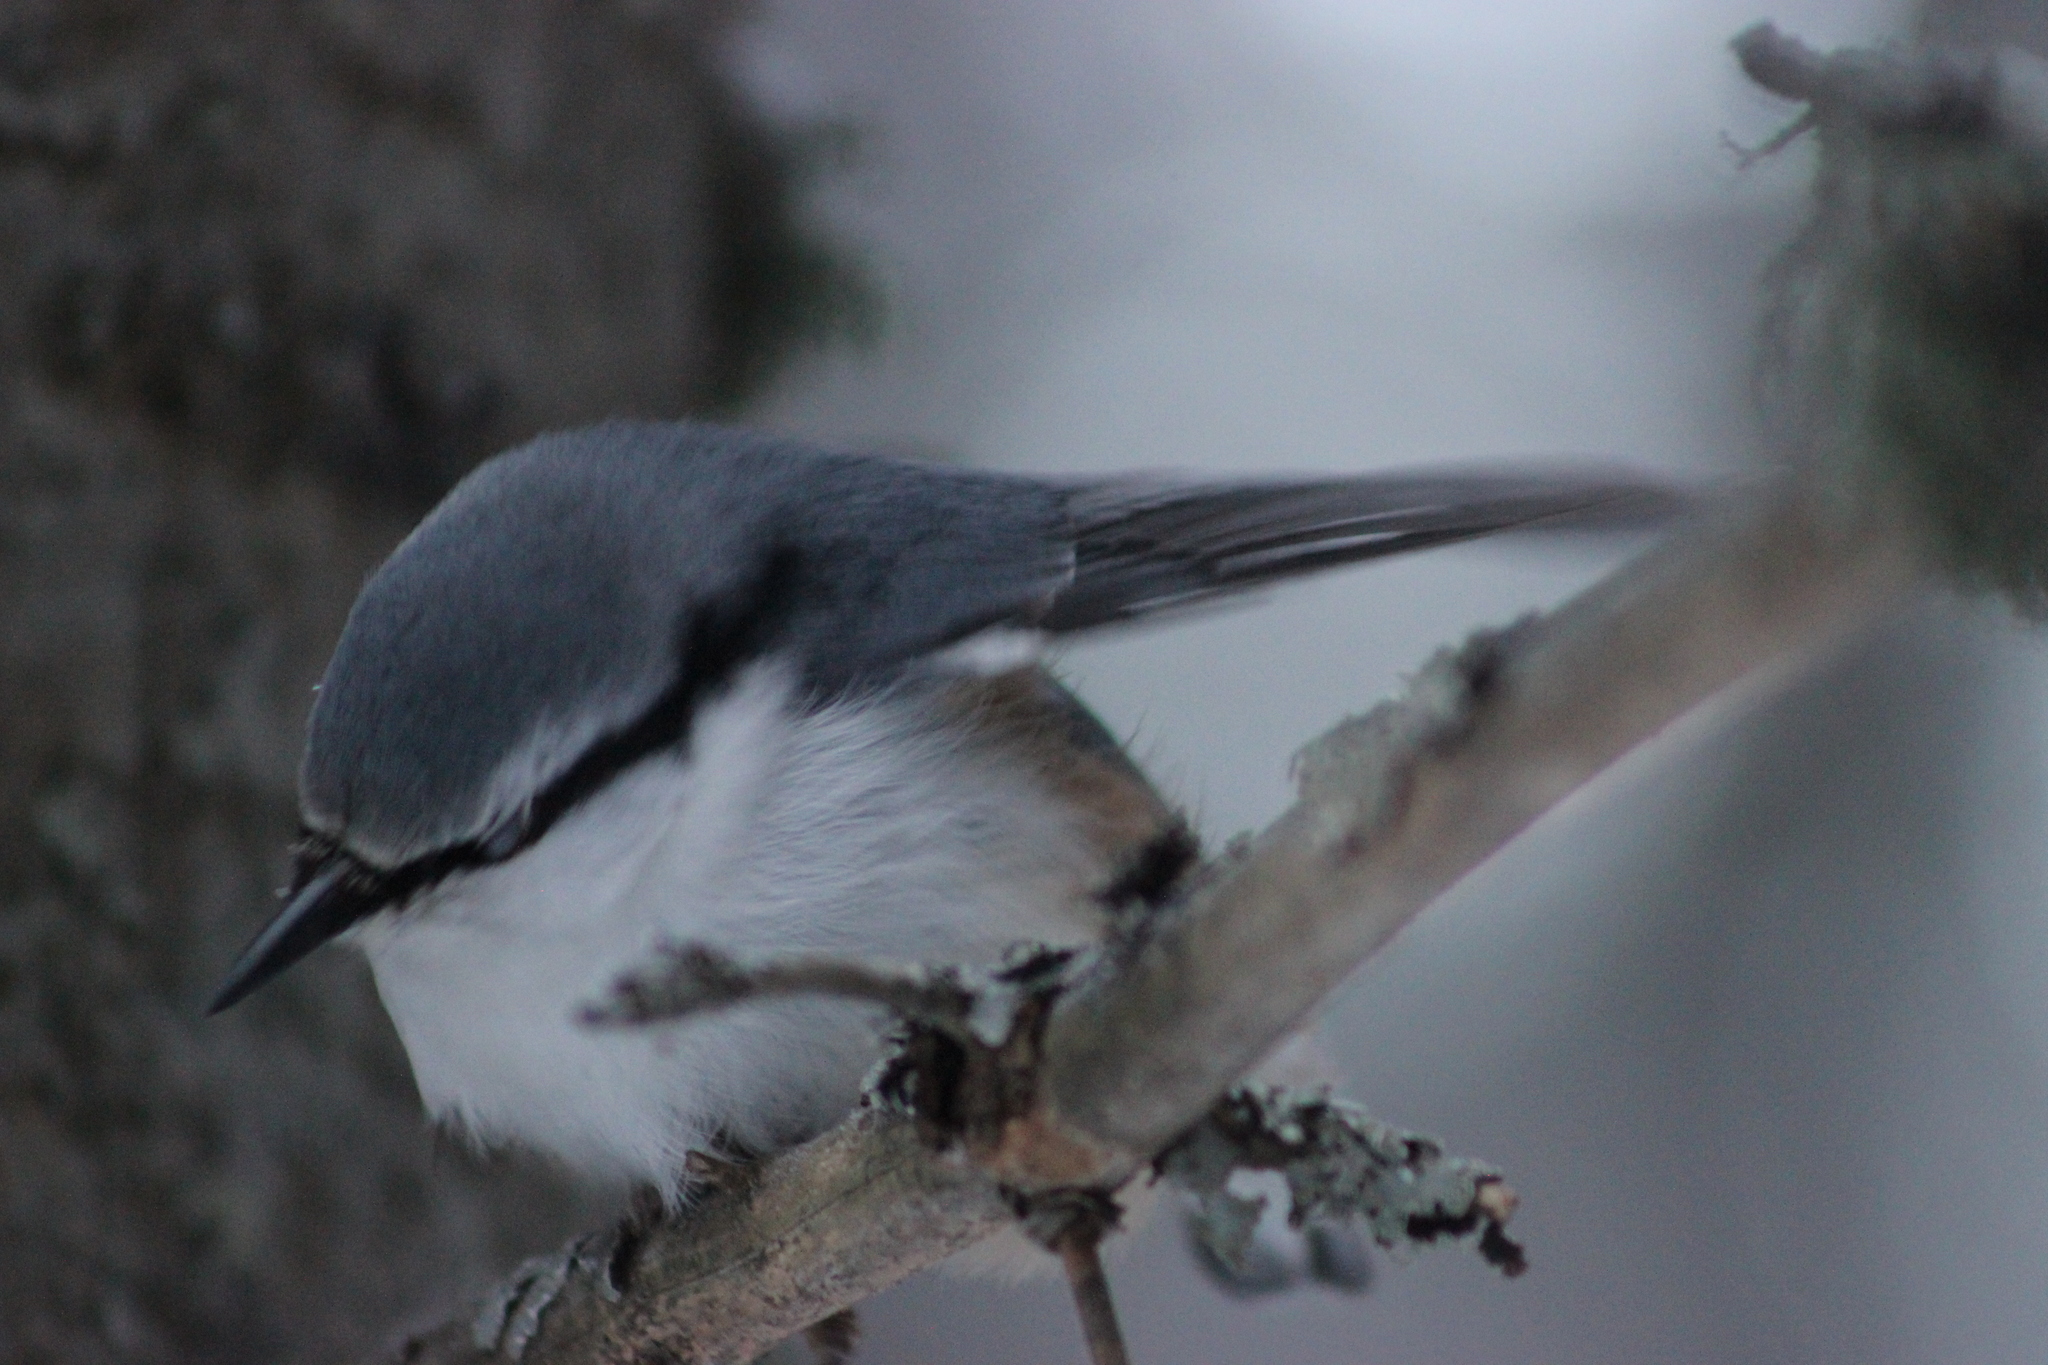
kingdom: Animalia
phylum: Chordata
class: Aves
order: Passeriformes
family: Sittidae
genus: Sitta
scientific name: Sitta europaea
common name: Eurasian nuthatch
